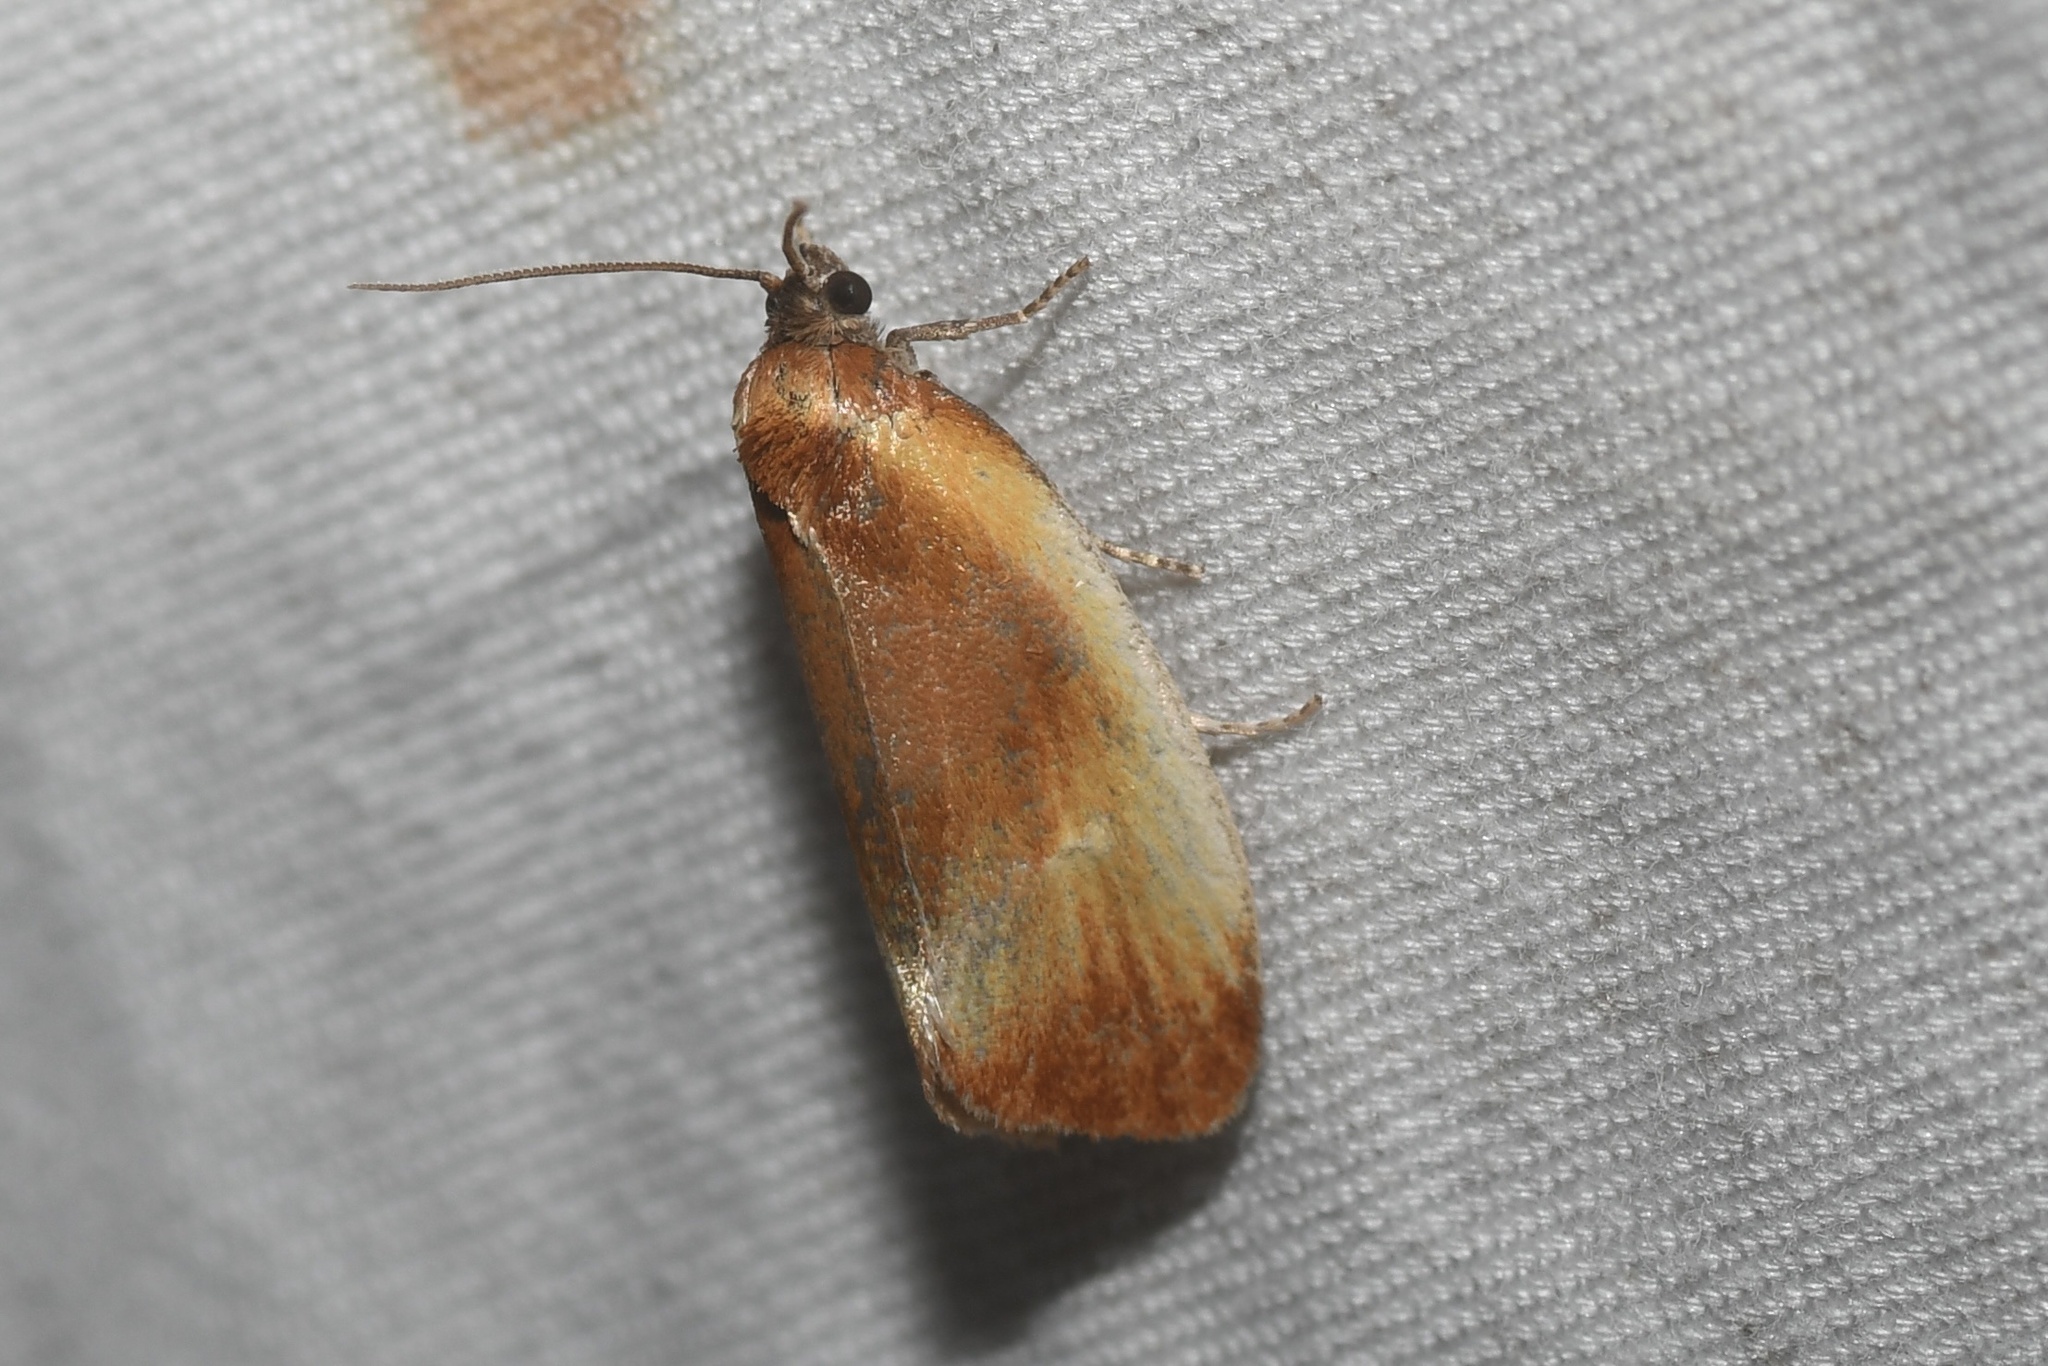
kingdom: Animalia
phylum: Arthropoda
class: Insecta
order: Lepidoptera
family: Tortricidae
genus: Eulia
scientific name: Eulia ministrana
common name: Brassy twist
